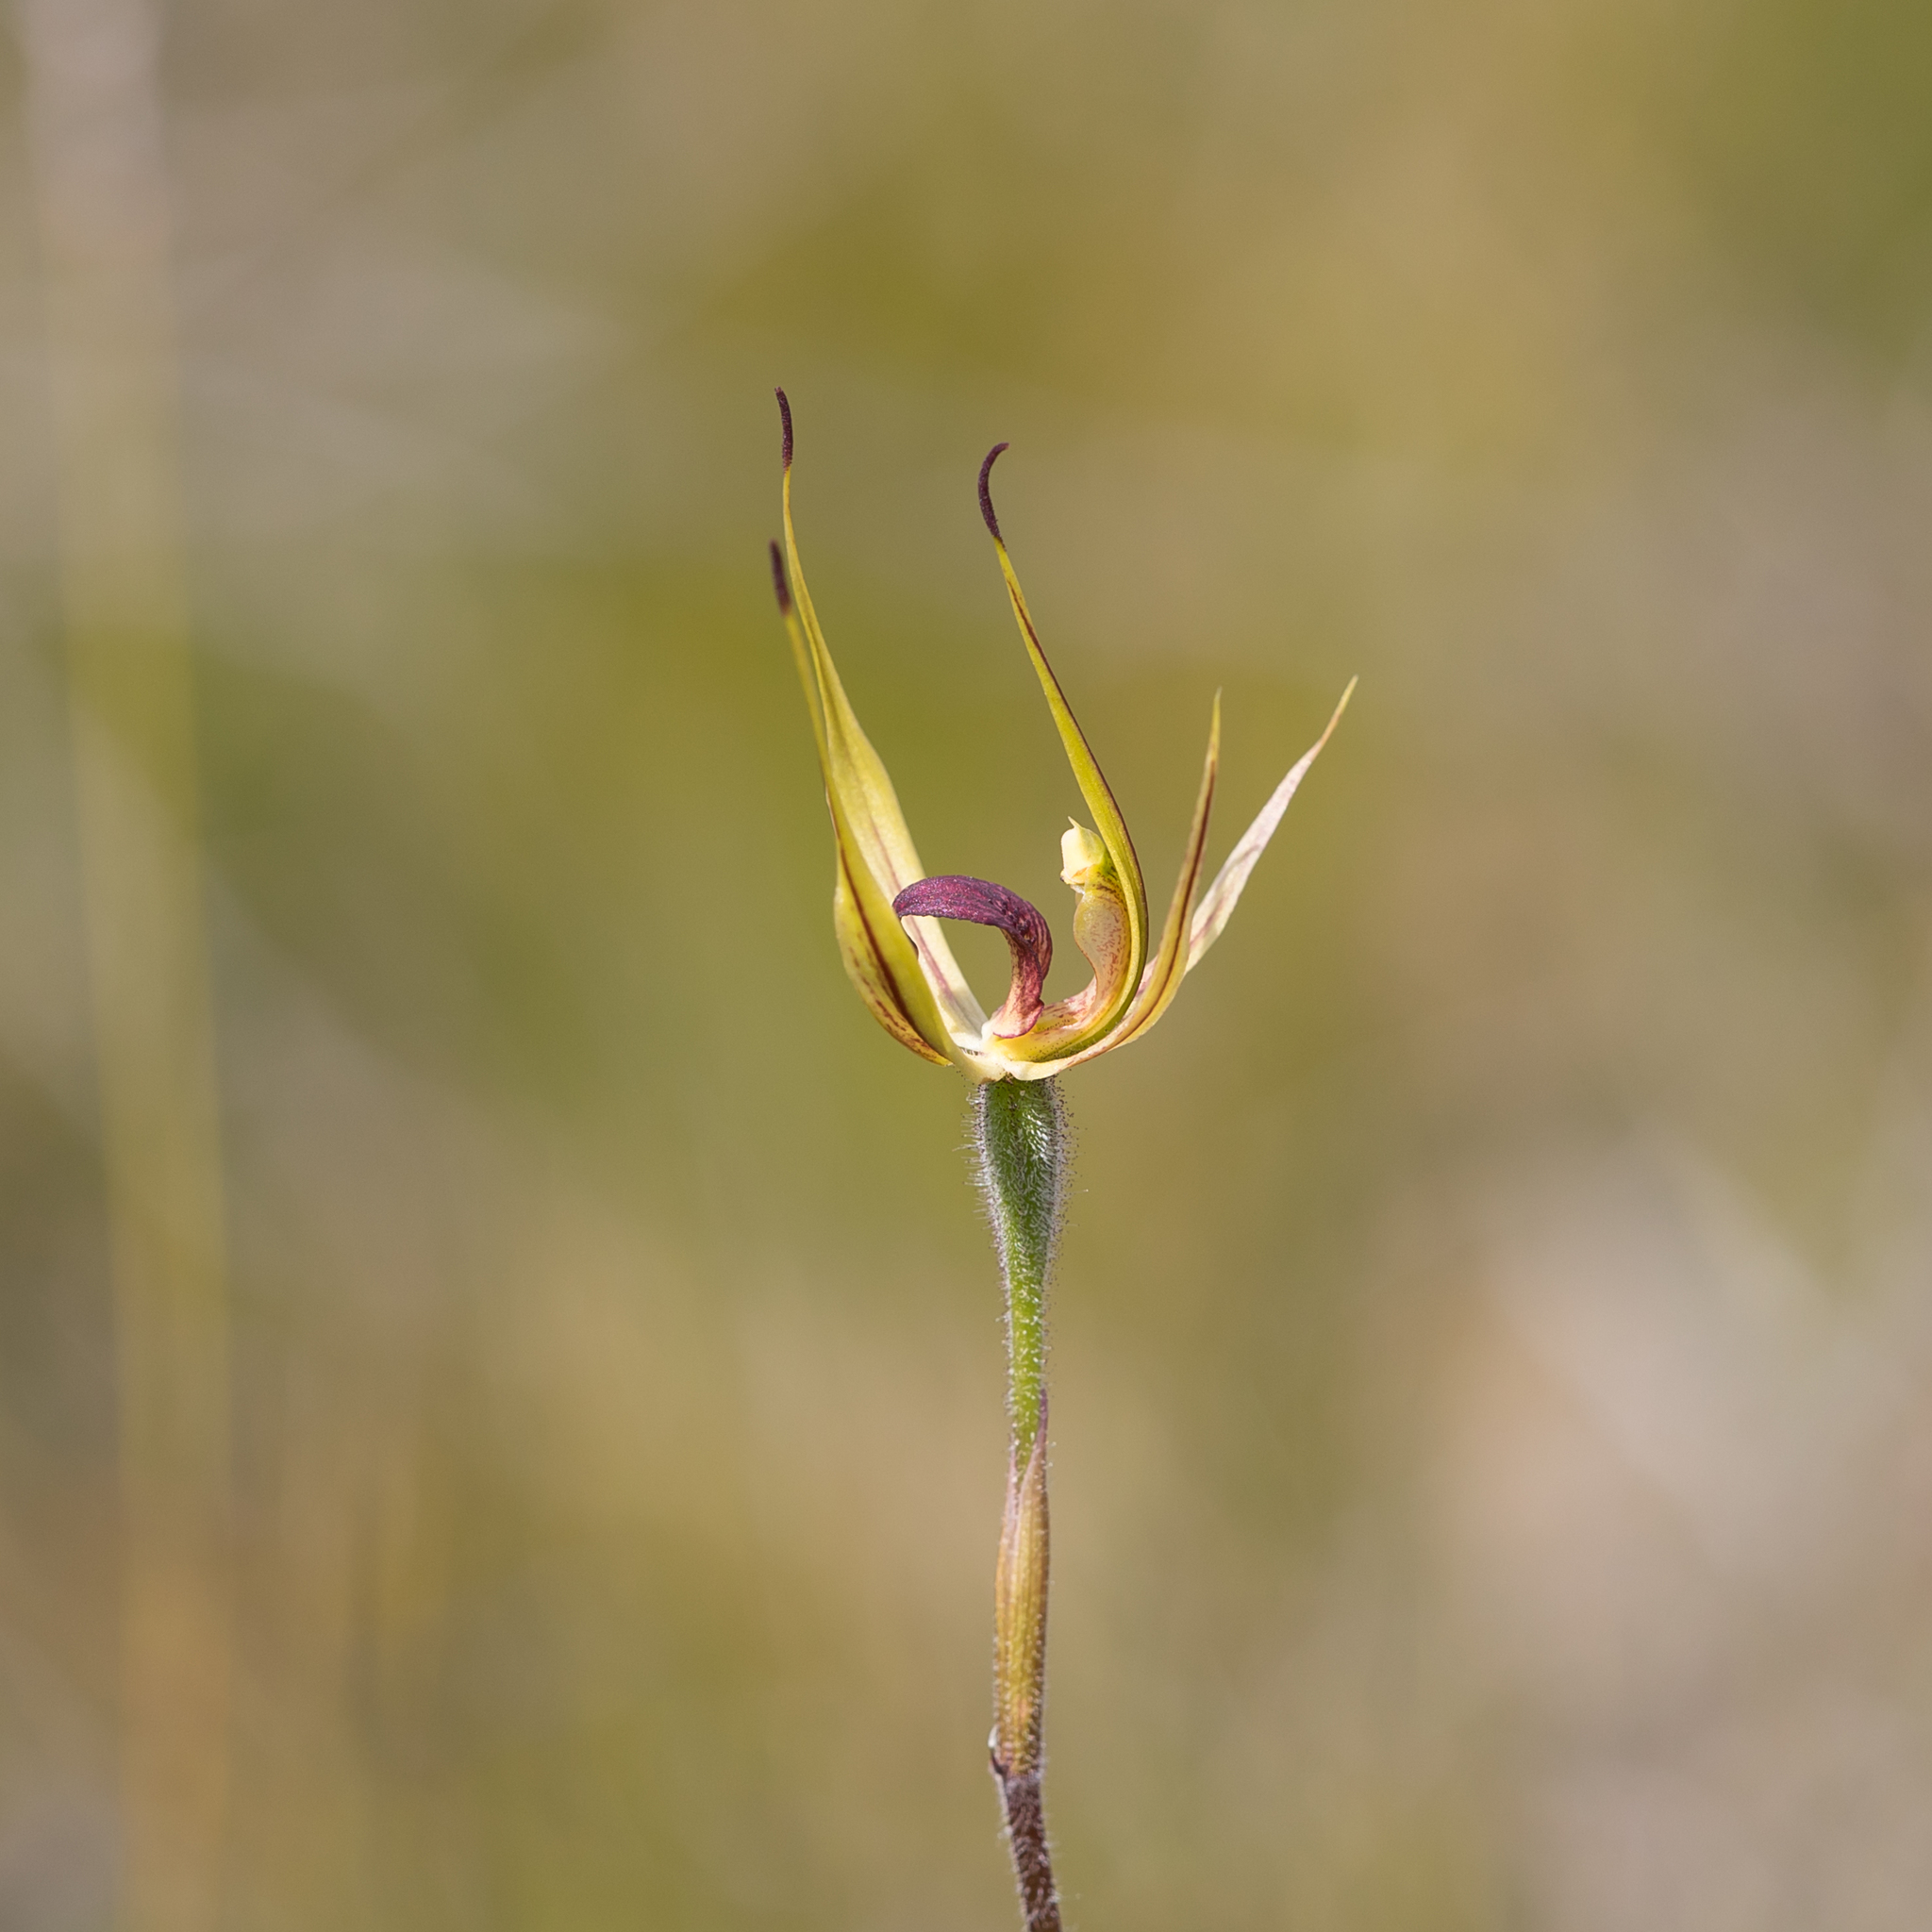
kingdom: Plantae
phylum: Tracheophyta
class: Liliopsida
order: Asparagales
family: Orchidaceae
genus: Caladenia
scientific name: Caladenia leptochila
